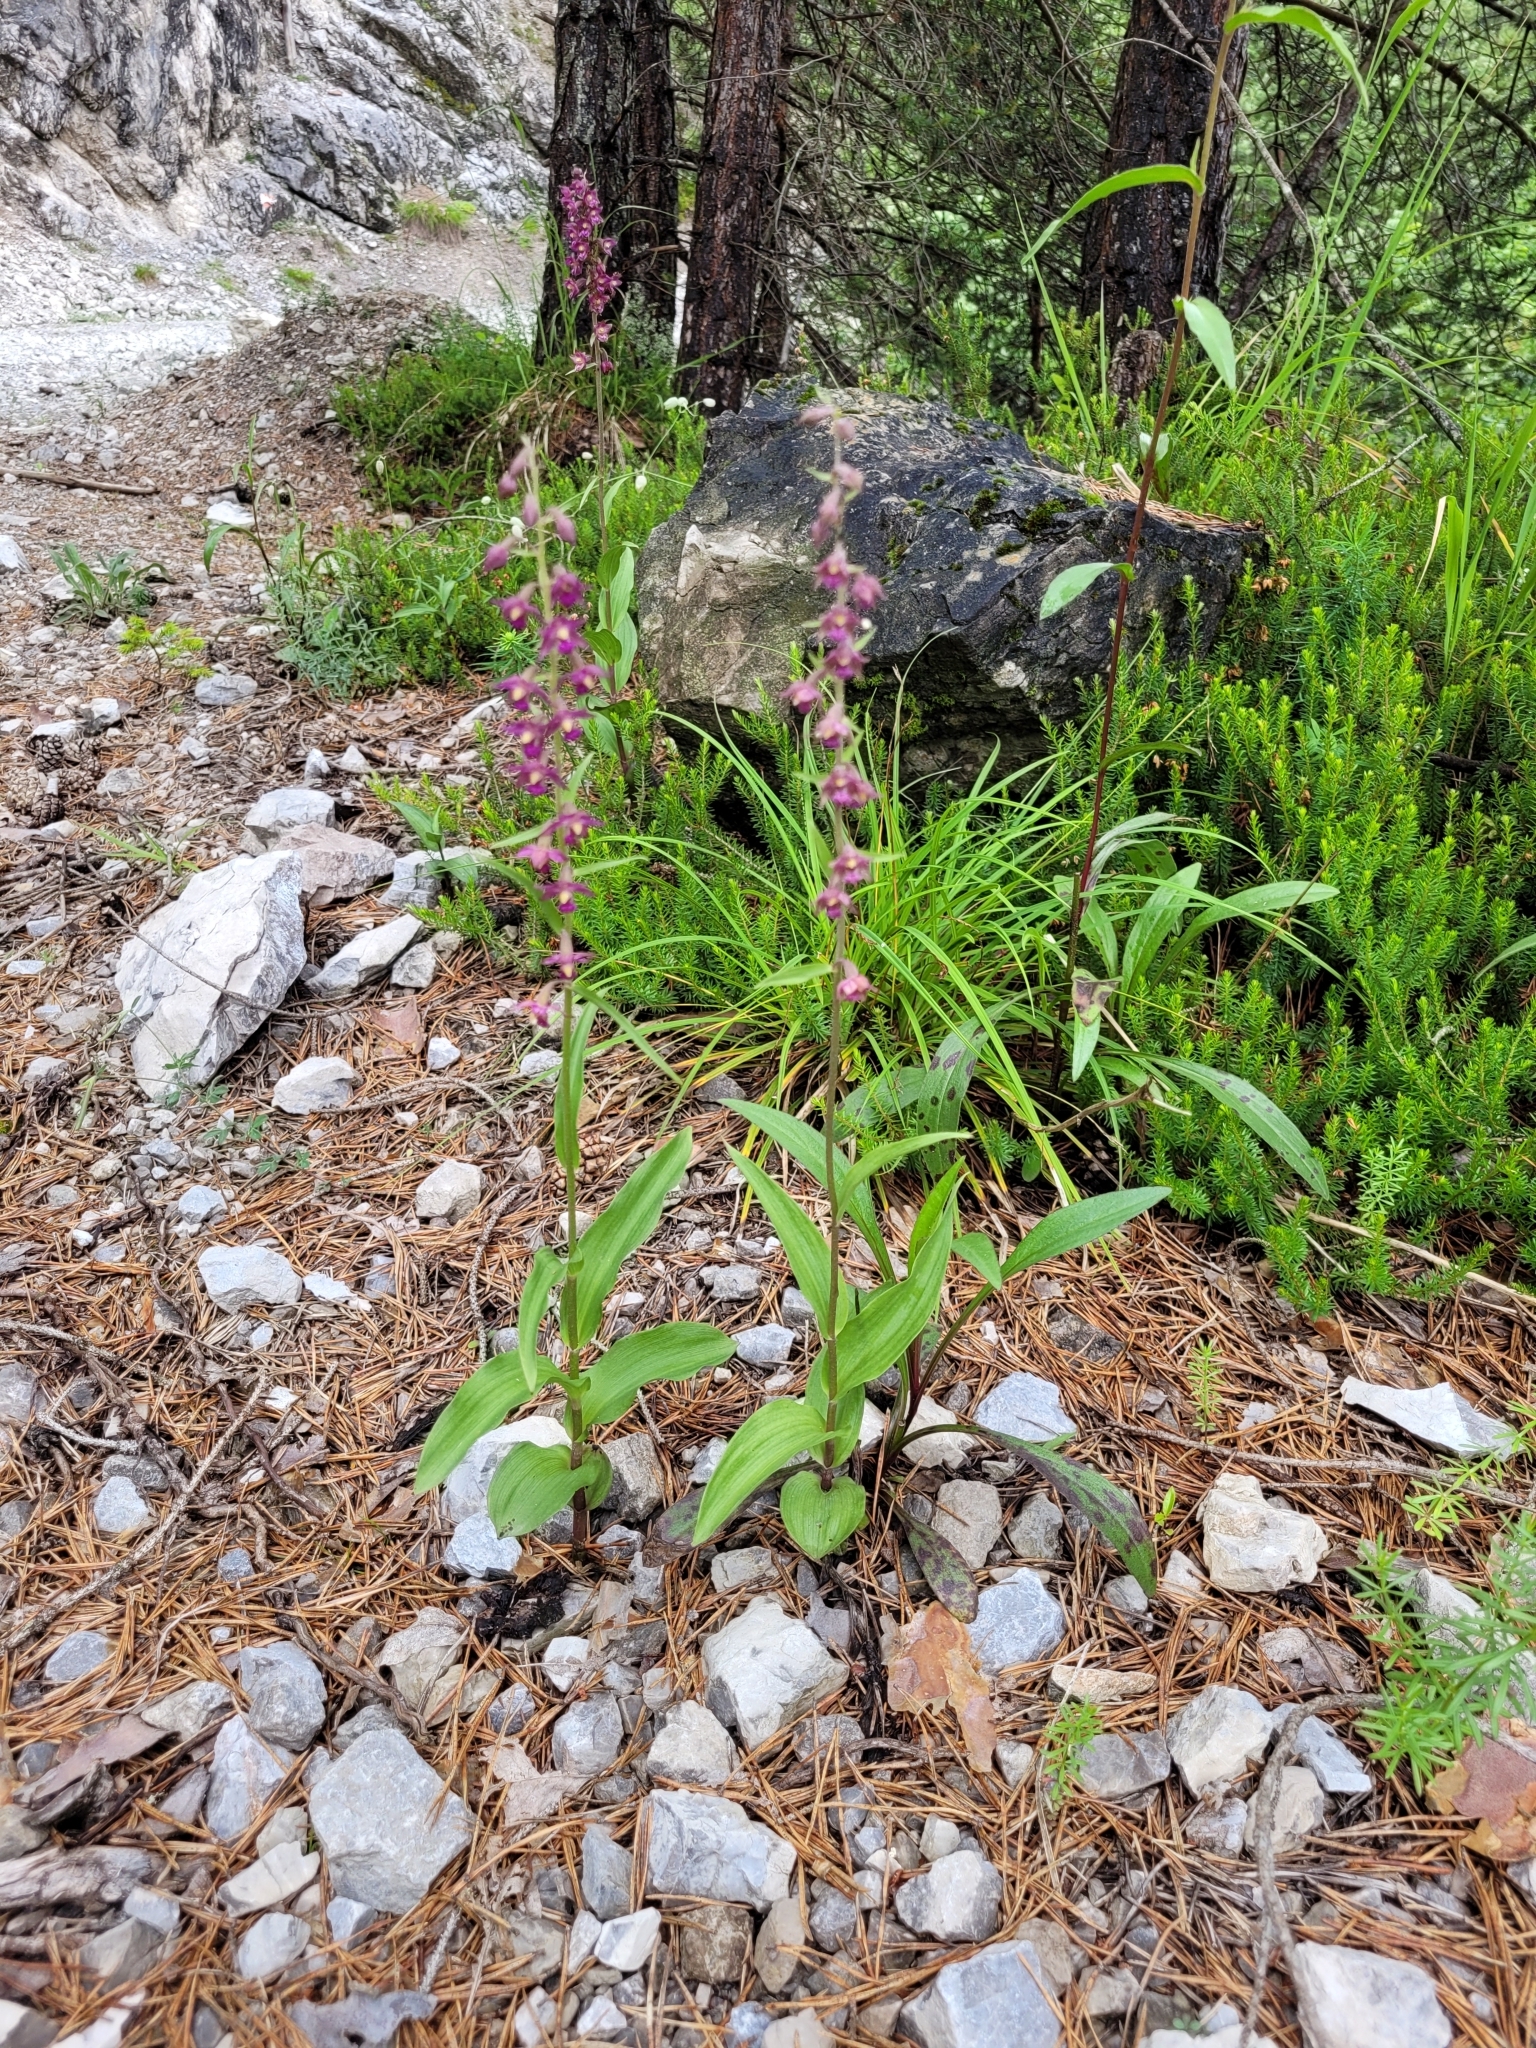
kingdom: Plantae
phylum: Tracheophyta
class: Liliopsida
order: Asparagales
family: Orchidaceae
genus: Epipactis
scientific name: Epipactis atrorubens
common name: Dark-red helleborine
